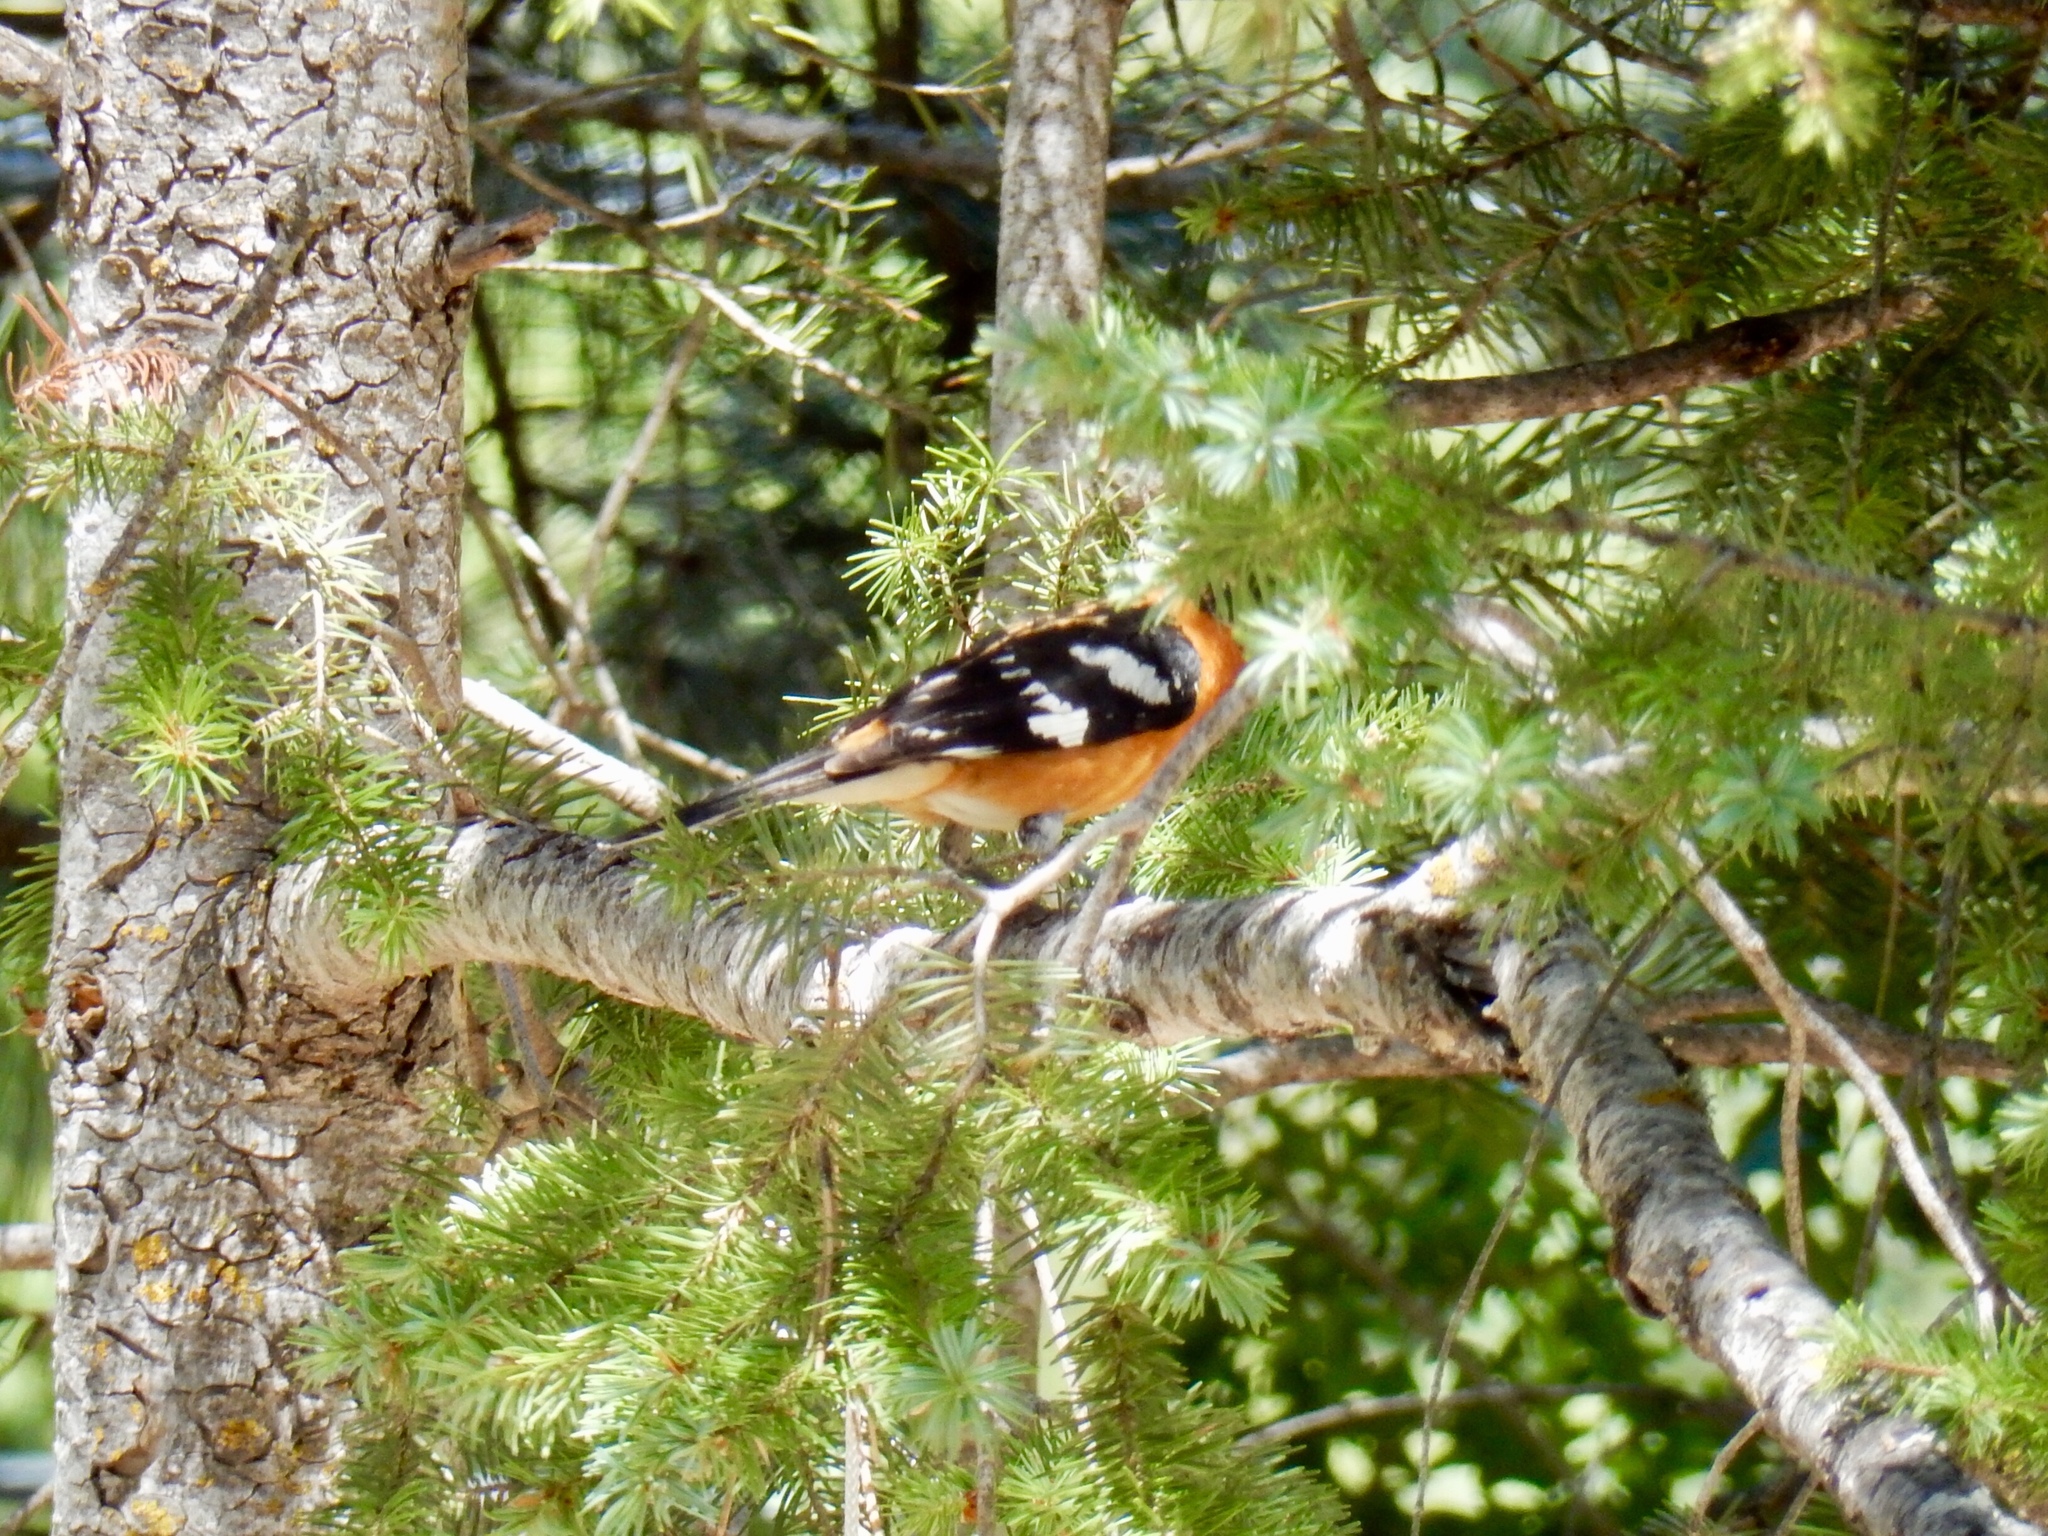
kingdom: Animalia
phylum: Chordata
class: Aves
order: Passeriformes
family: Cardinalidae
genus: Pheucticus
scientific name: Pheucticus melanocephalus
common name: Black-headed grosbeak
